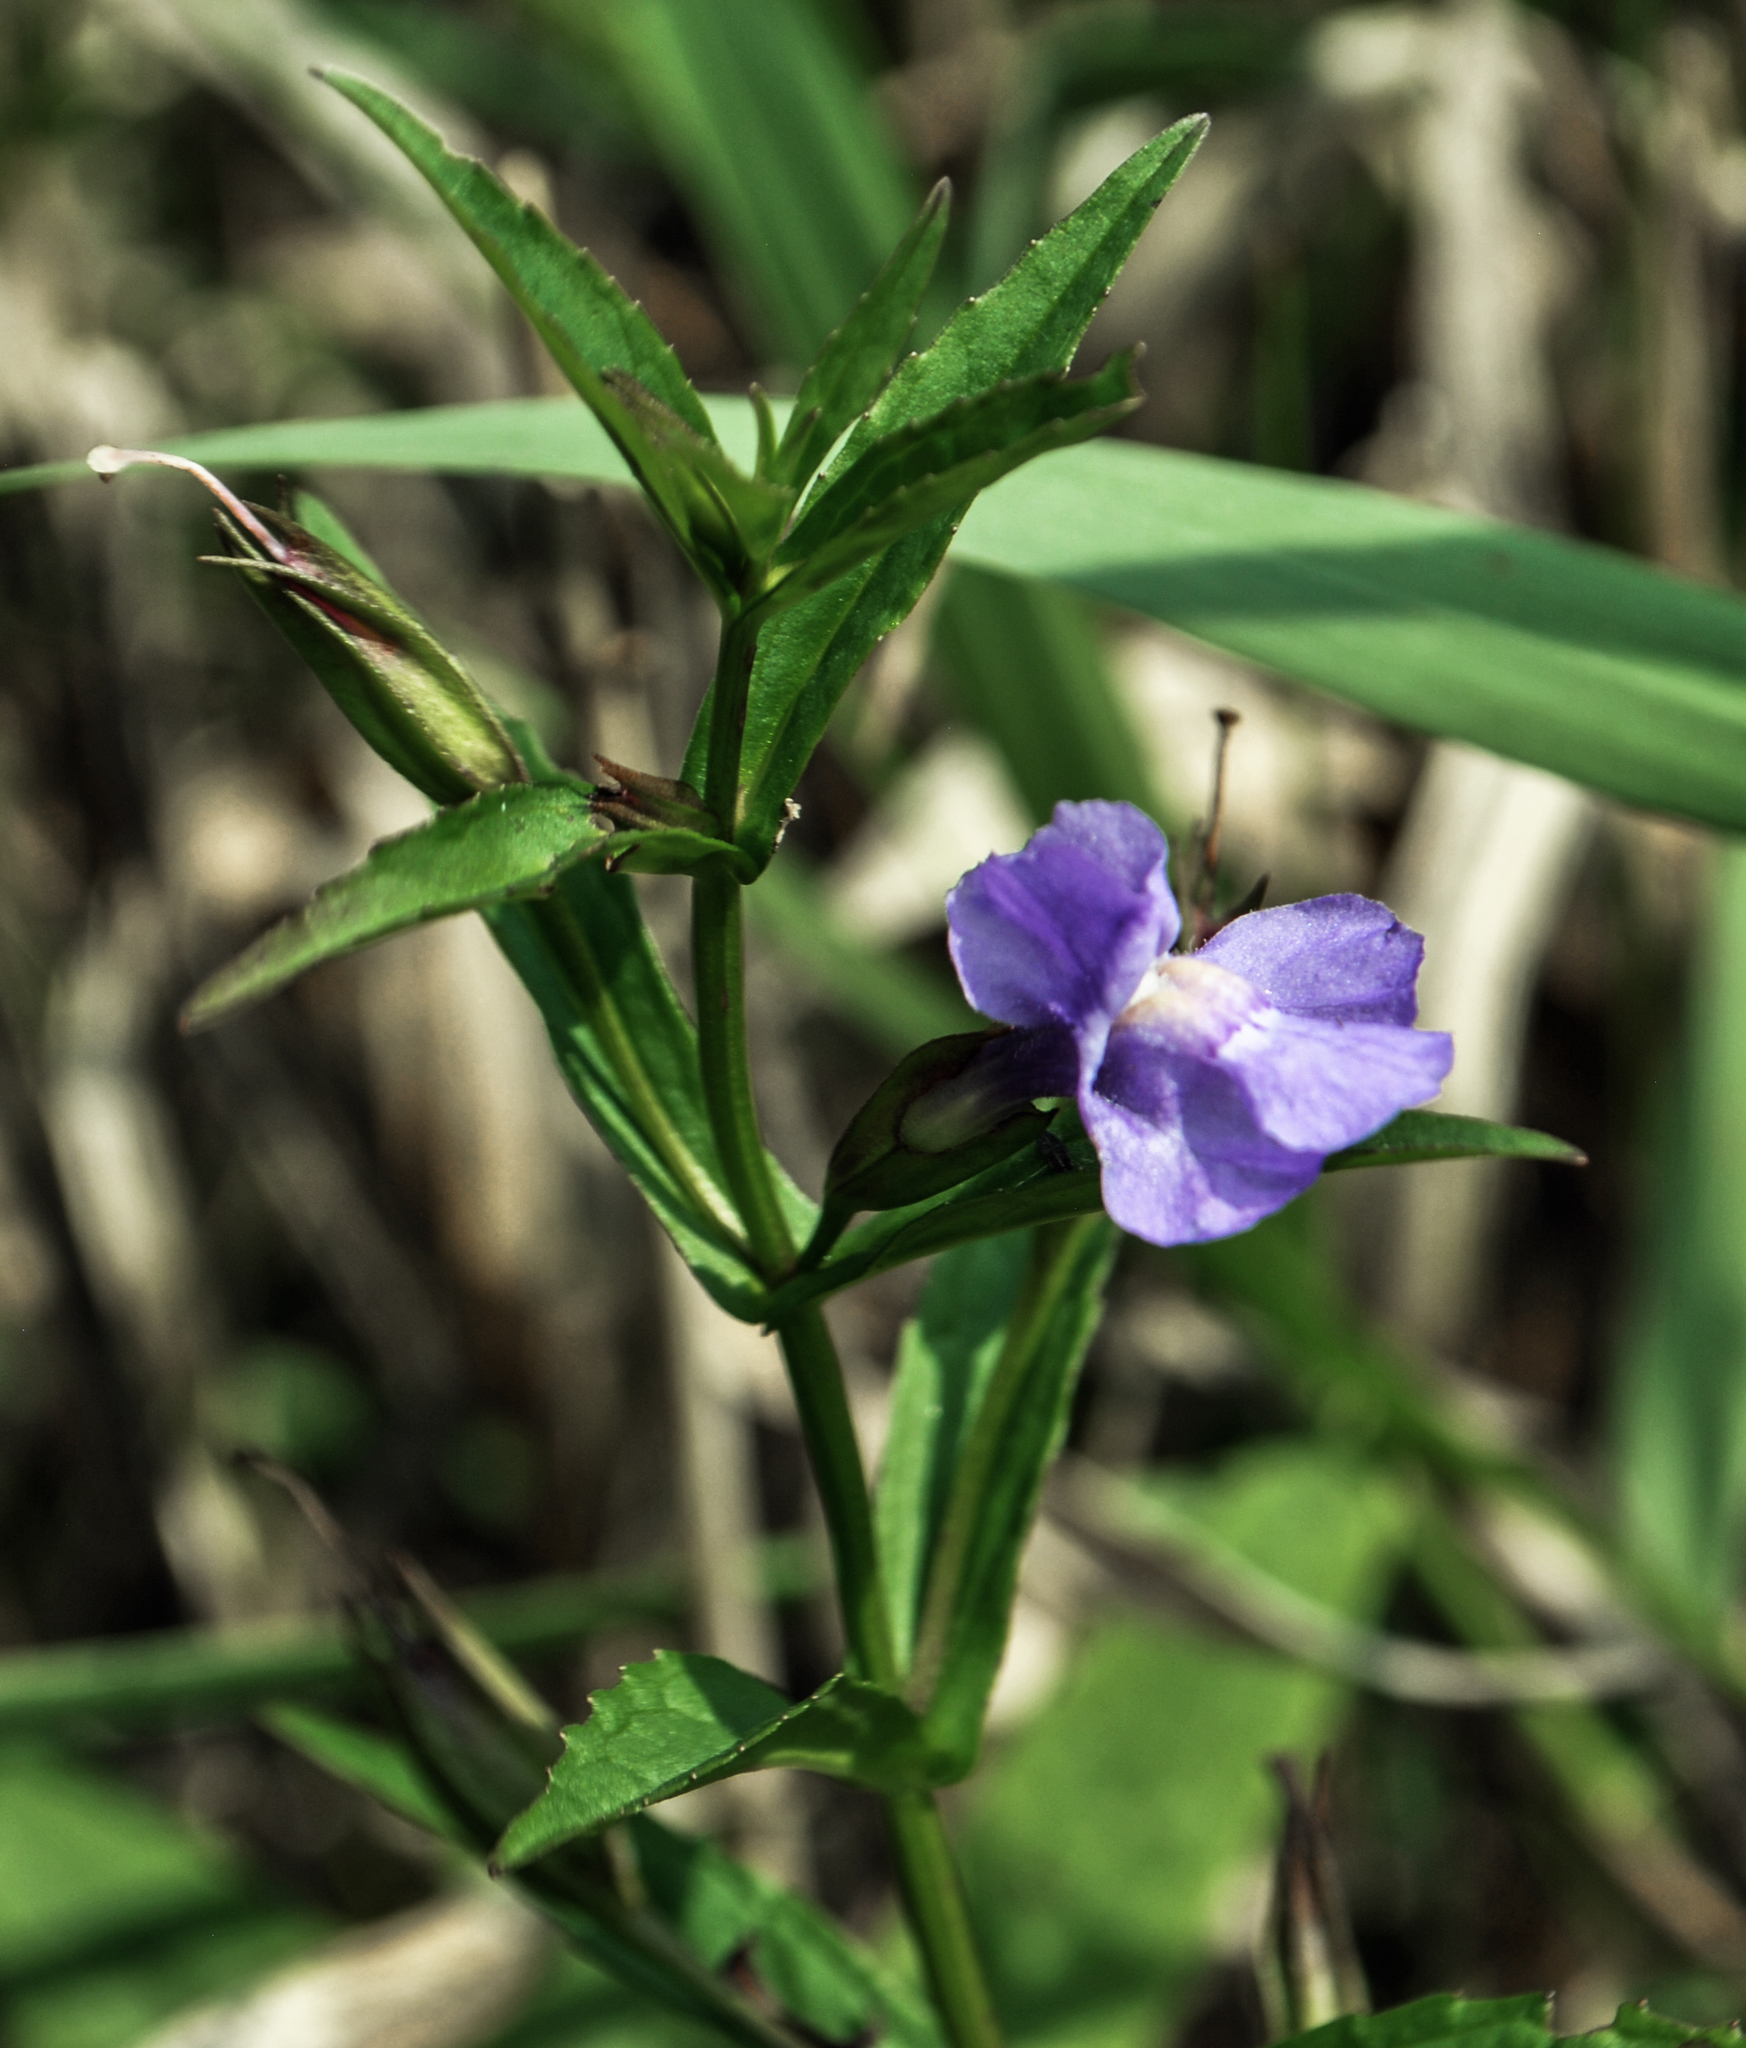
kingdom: Plantae
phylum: Tracheophyta
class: Magnoliopsida
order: Lamiales
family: Phrymaceae
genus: Mimulus
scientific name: Mimulus ringens
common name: Allegheny monkeyflower
